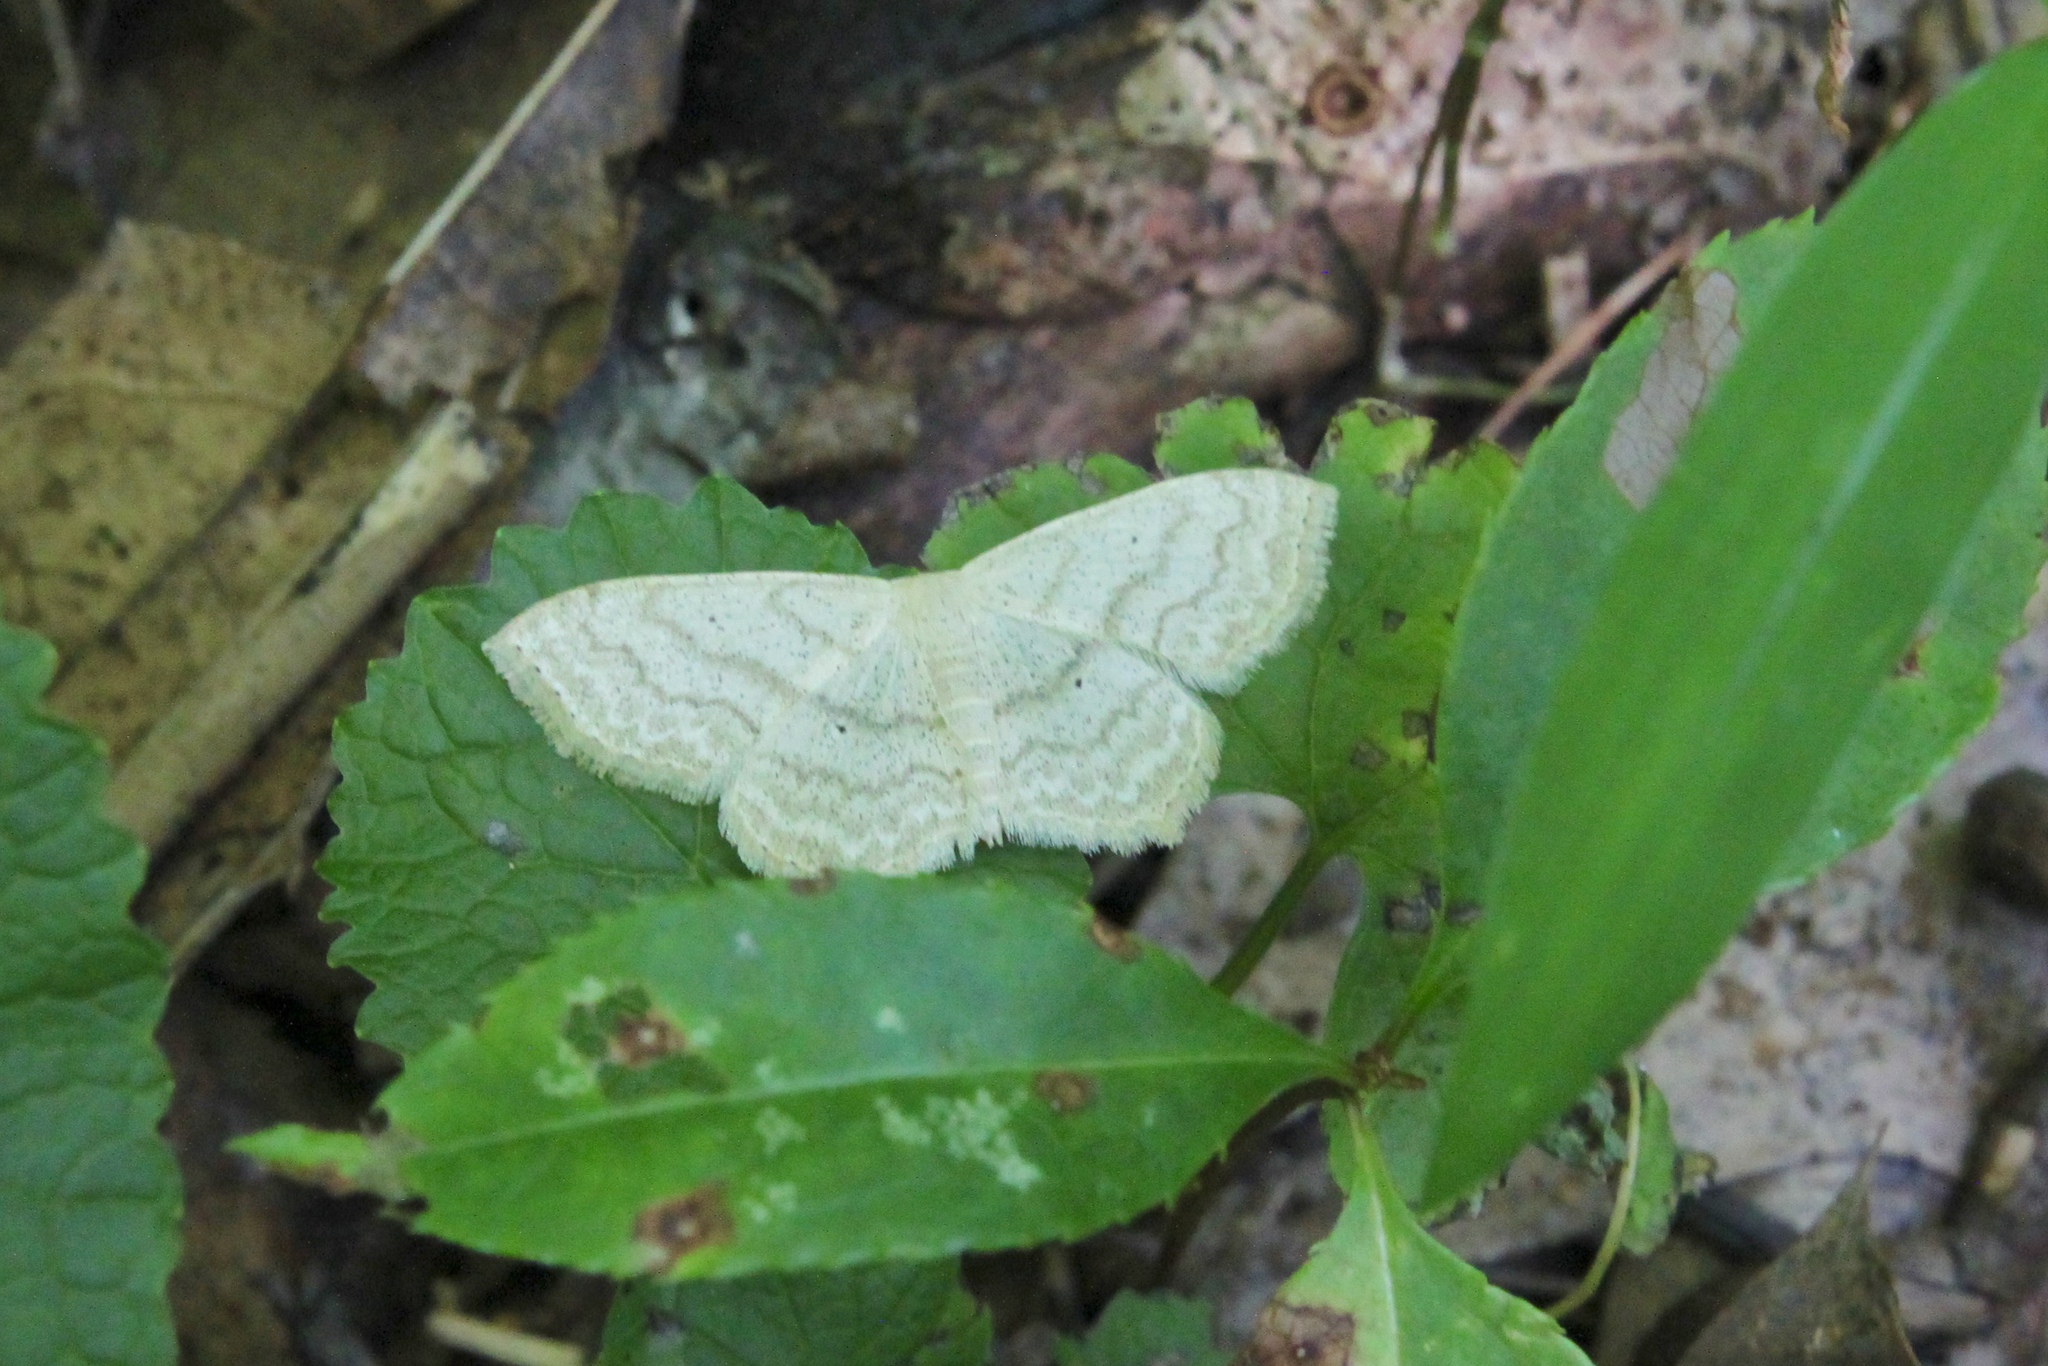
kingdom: Animalia
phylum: Arthropoda
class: Insecta
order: Lepidoptera
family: Geometridae
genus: Scopula
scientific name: Scopula limboundata
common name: Large lace border
